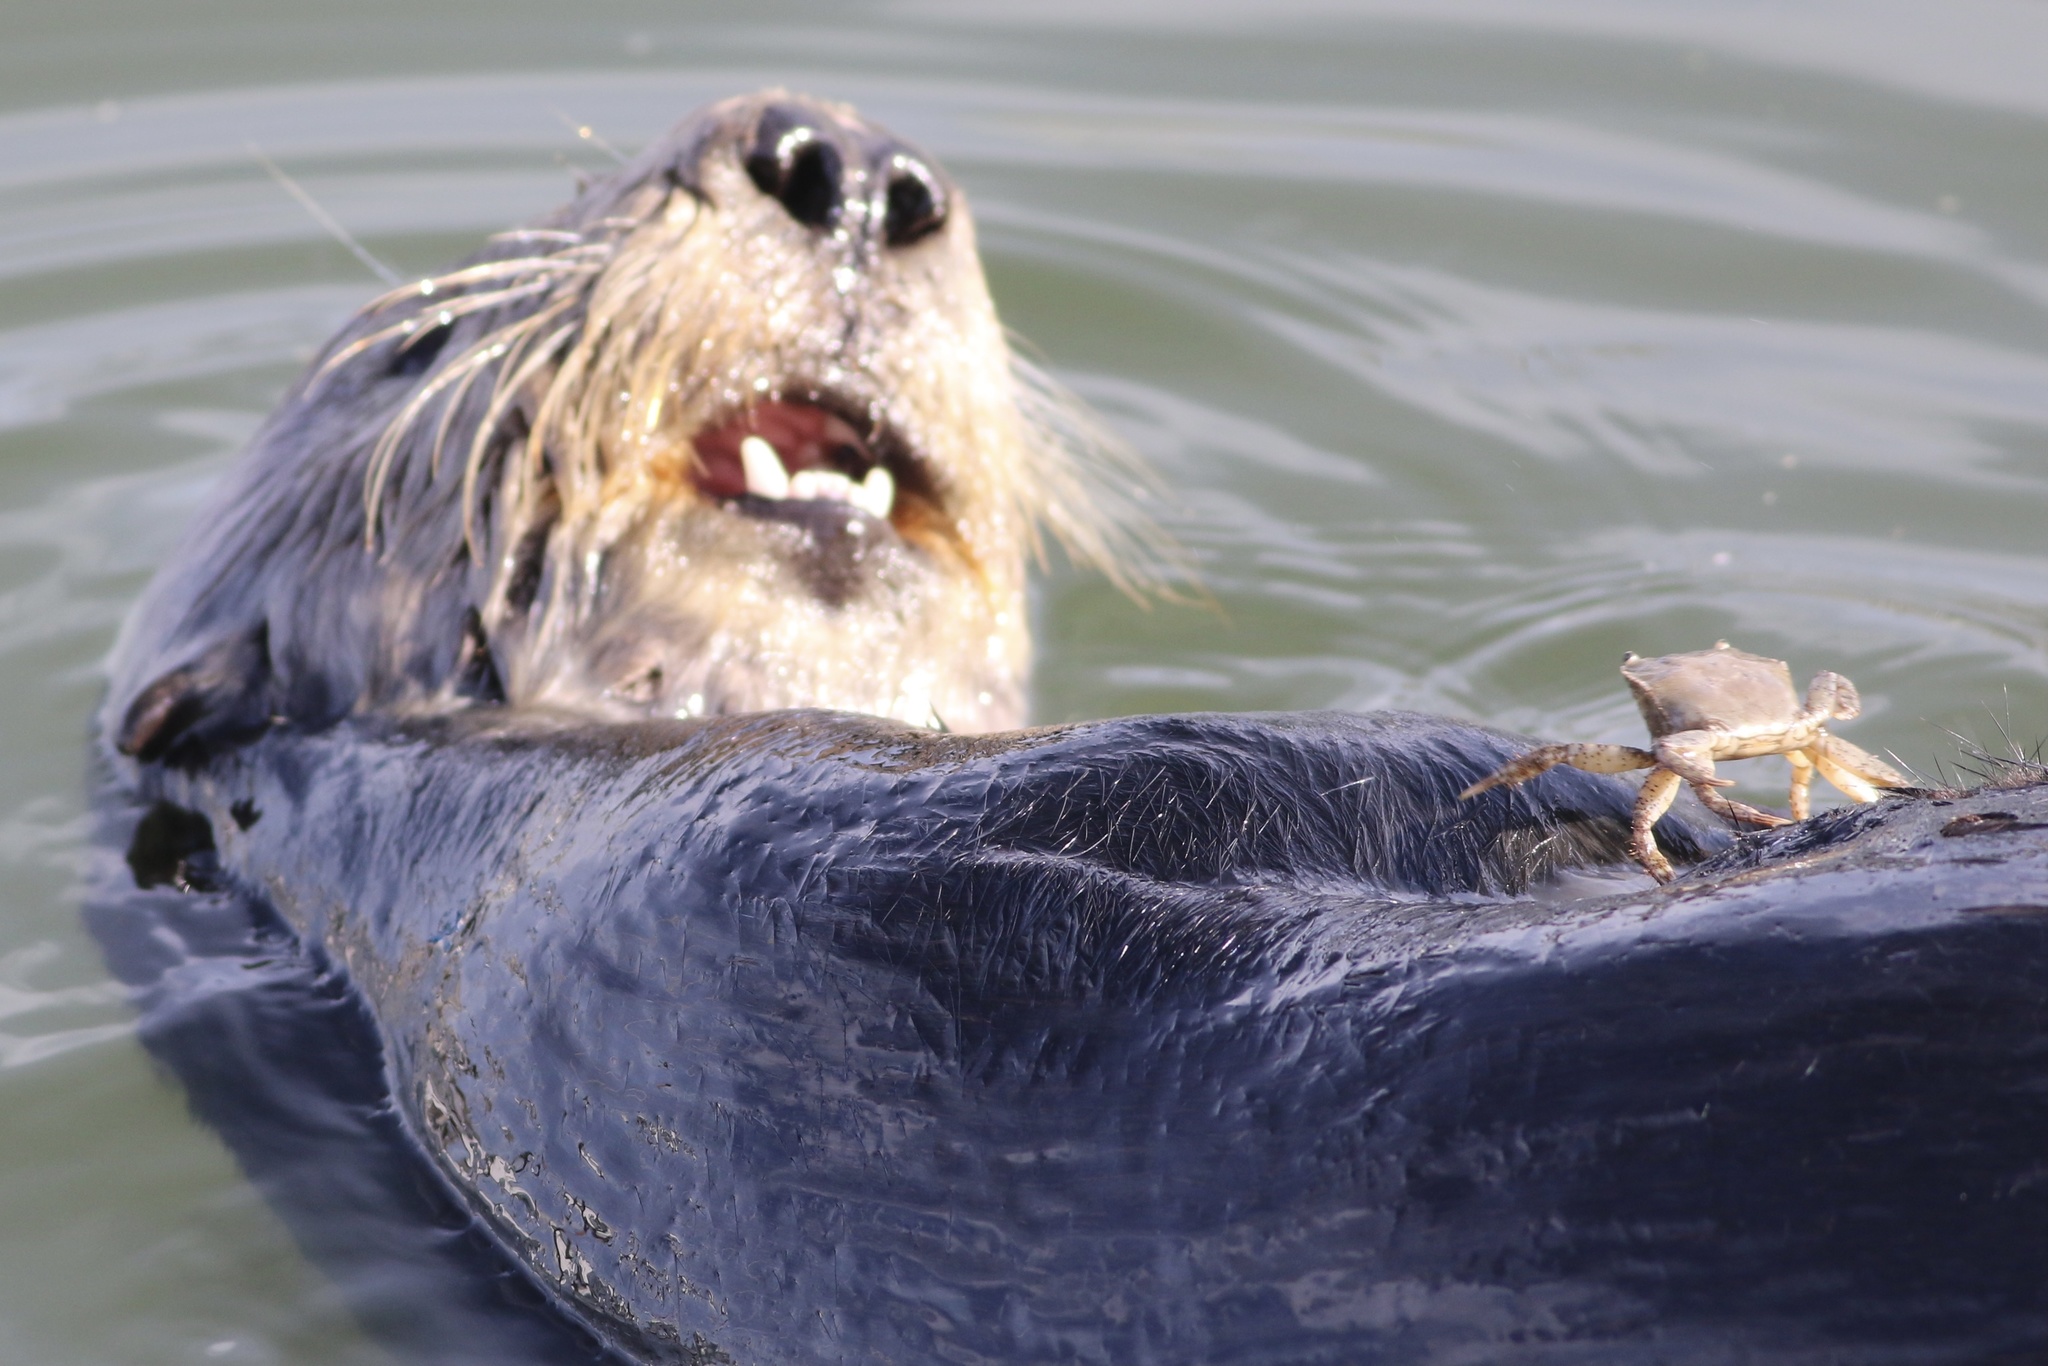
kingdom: Animalia
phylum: Arthropoda
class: Malacostraca
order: Decapoda
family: Varunidae
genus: Hemigrapsus
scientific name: Hemigrapsus oregonensis
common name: Yellow shore crab
